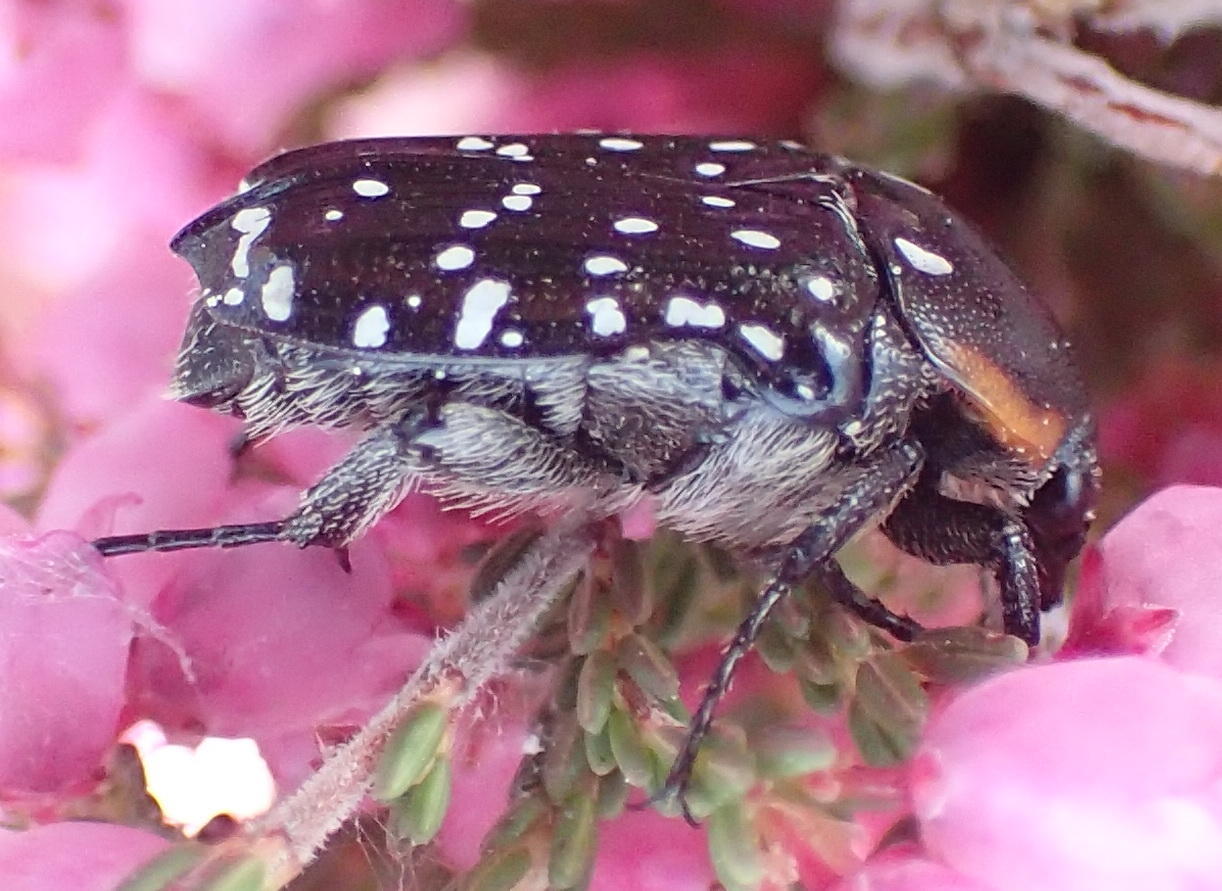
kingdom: Animalia
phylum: Arthropoda
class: Insecta
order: Coleoptera
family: Scarabaeidae
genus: Oxythyrea
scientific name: Oxythyrea
